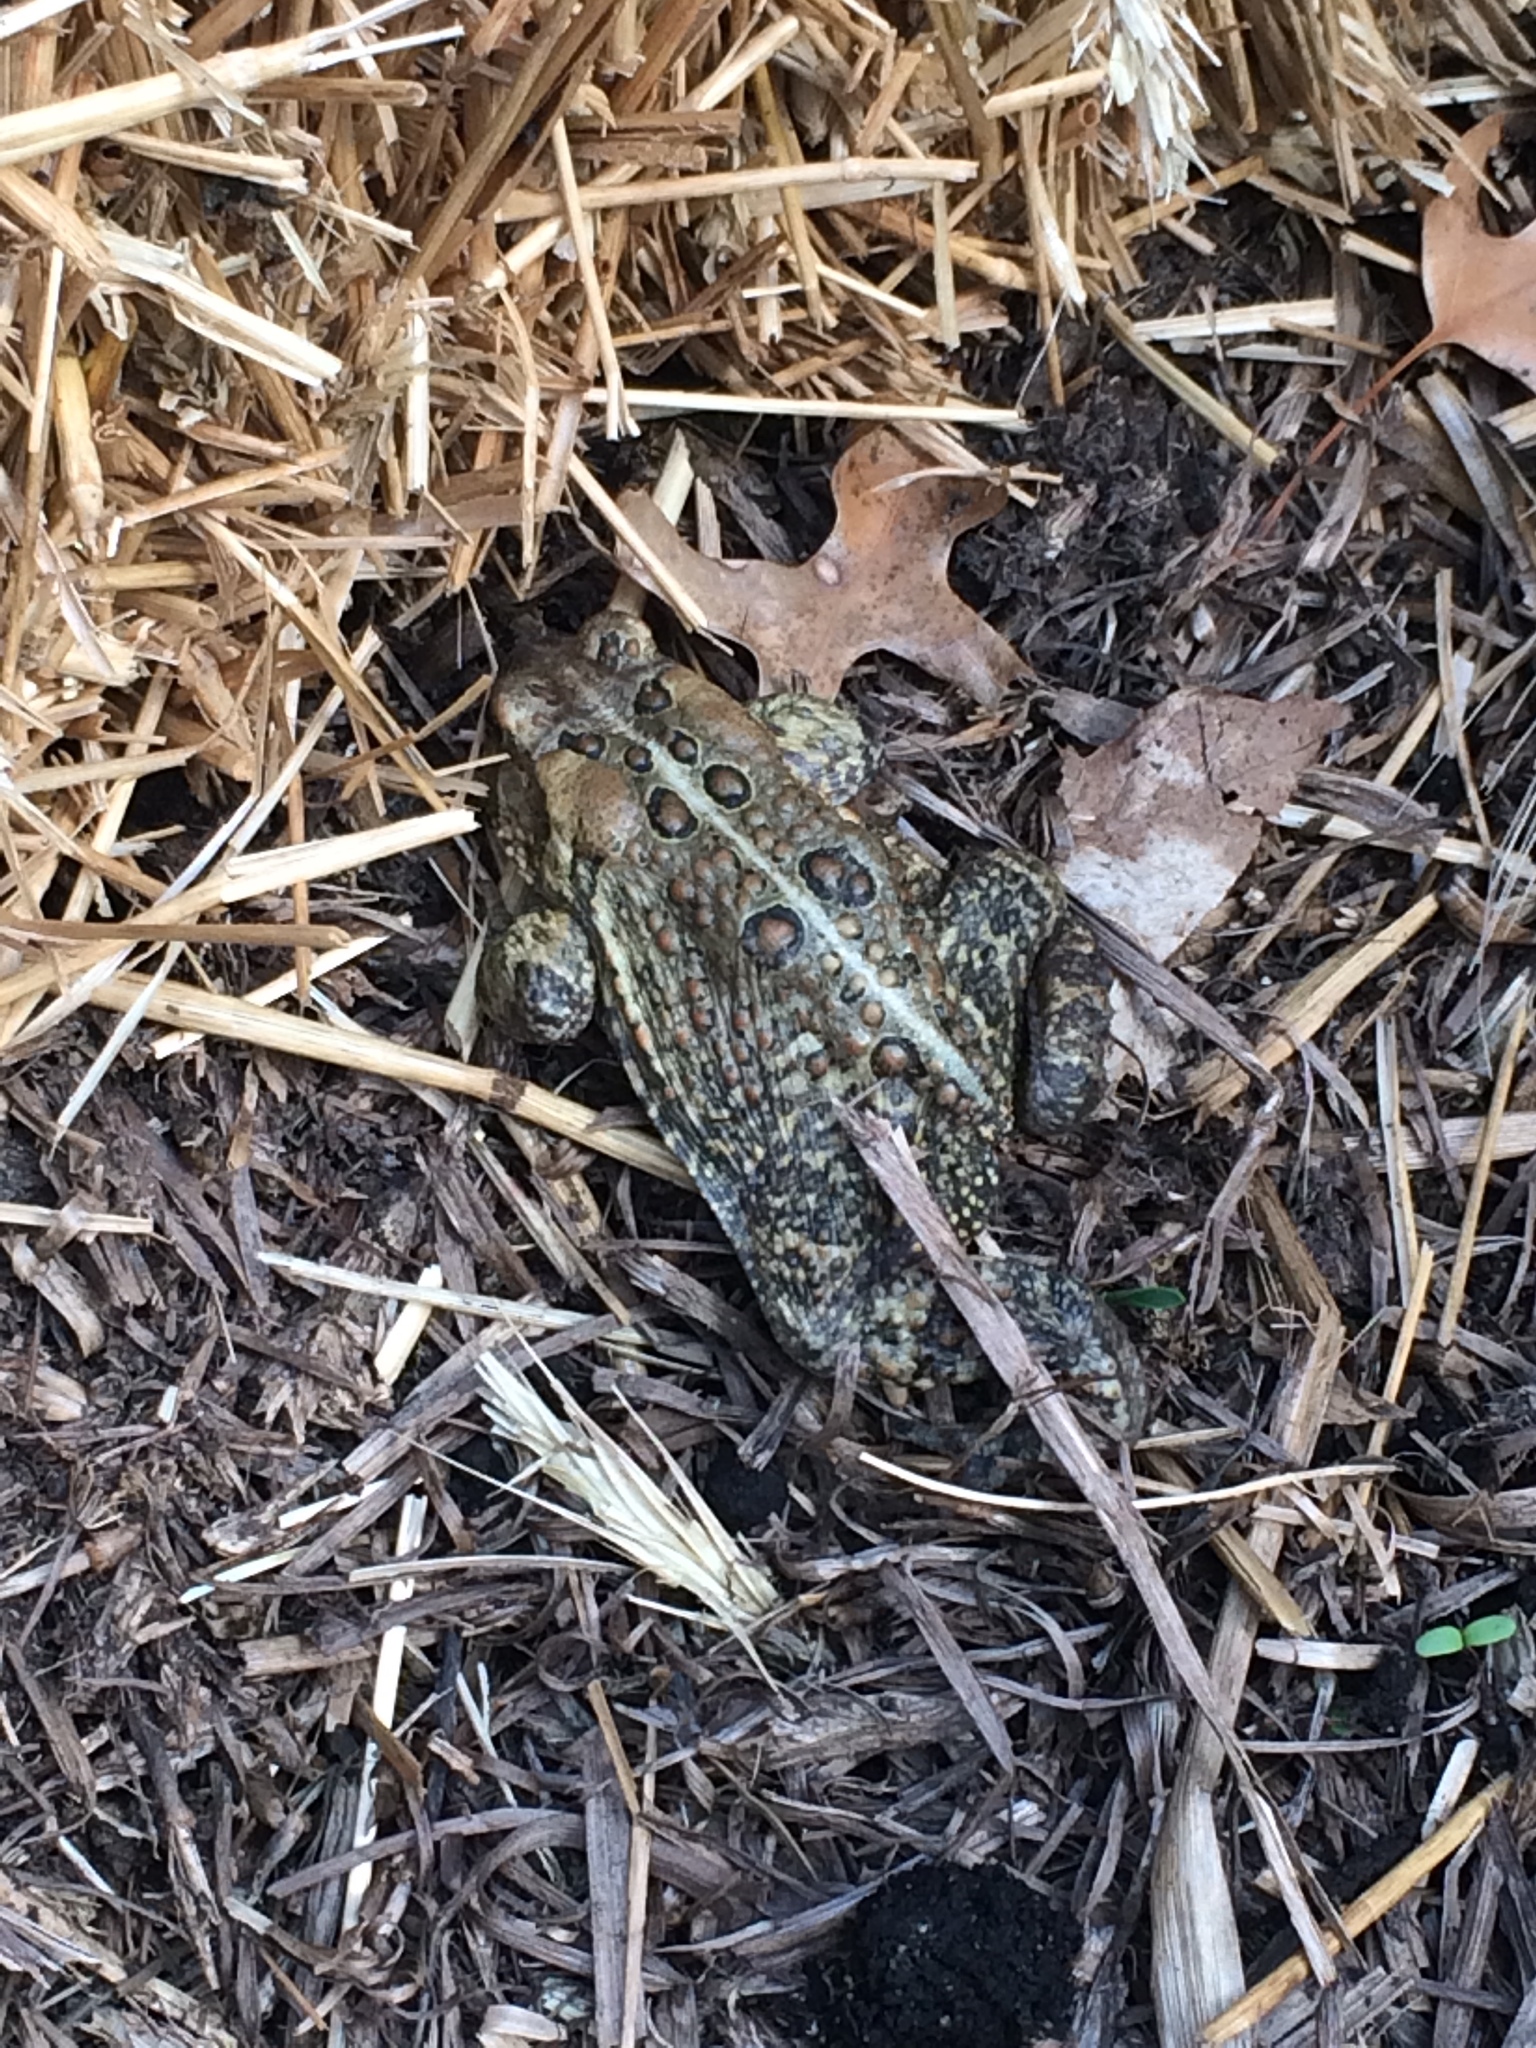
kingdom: Animalia
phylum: Chordata
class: Amphibia
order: Anura
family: Bufonidae
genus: Anaxyrus
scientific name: Anaxyrus americanus
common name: American toad
